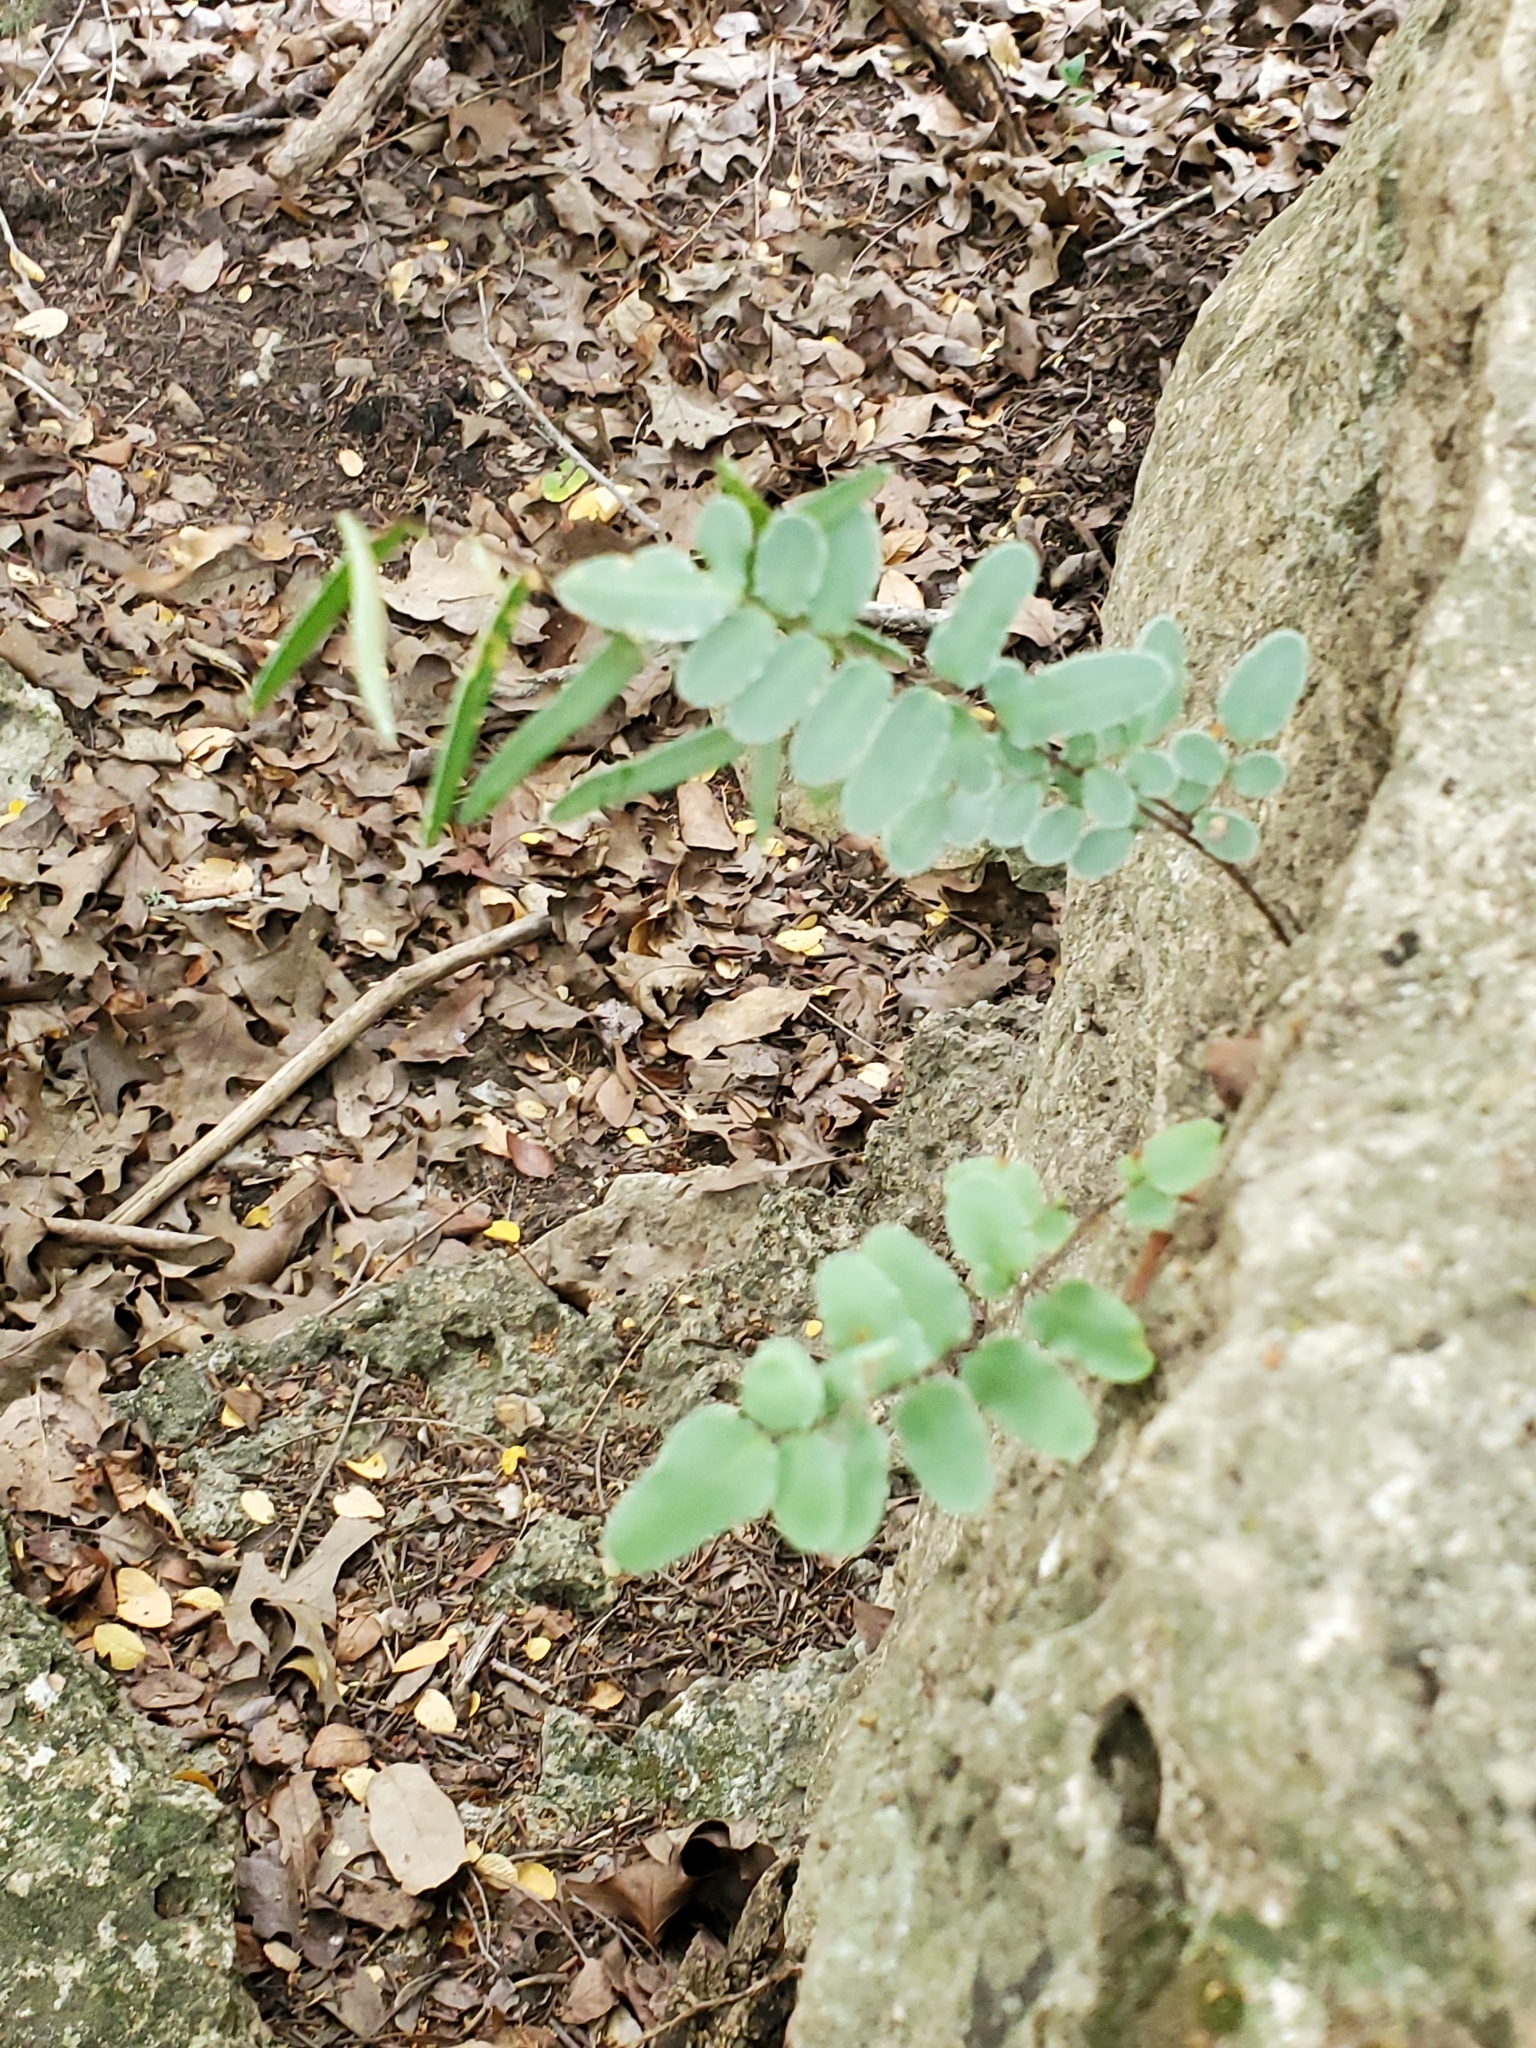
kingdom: Plantae
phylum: Tracheophyta
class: Polypodiopsida
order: Polypodiales
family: Pteridaceae
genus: Pellaea
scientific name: Pellaea atropurpurea
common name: Hairy cliffbrake
